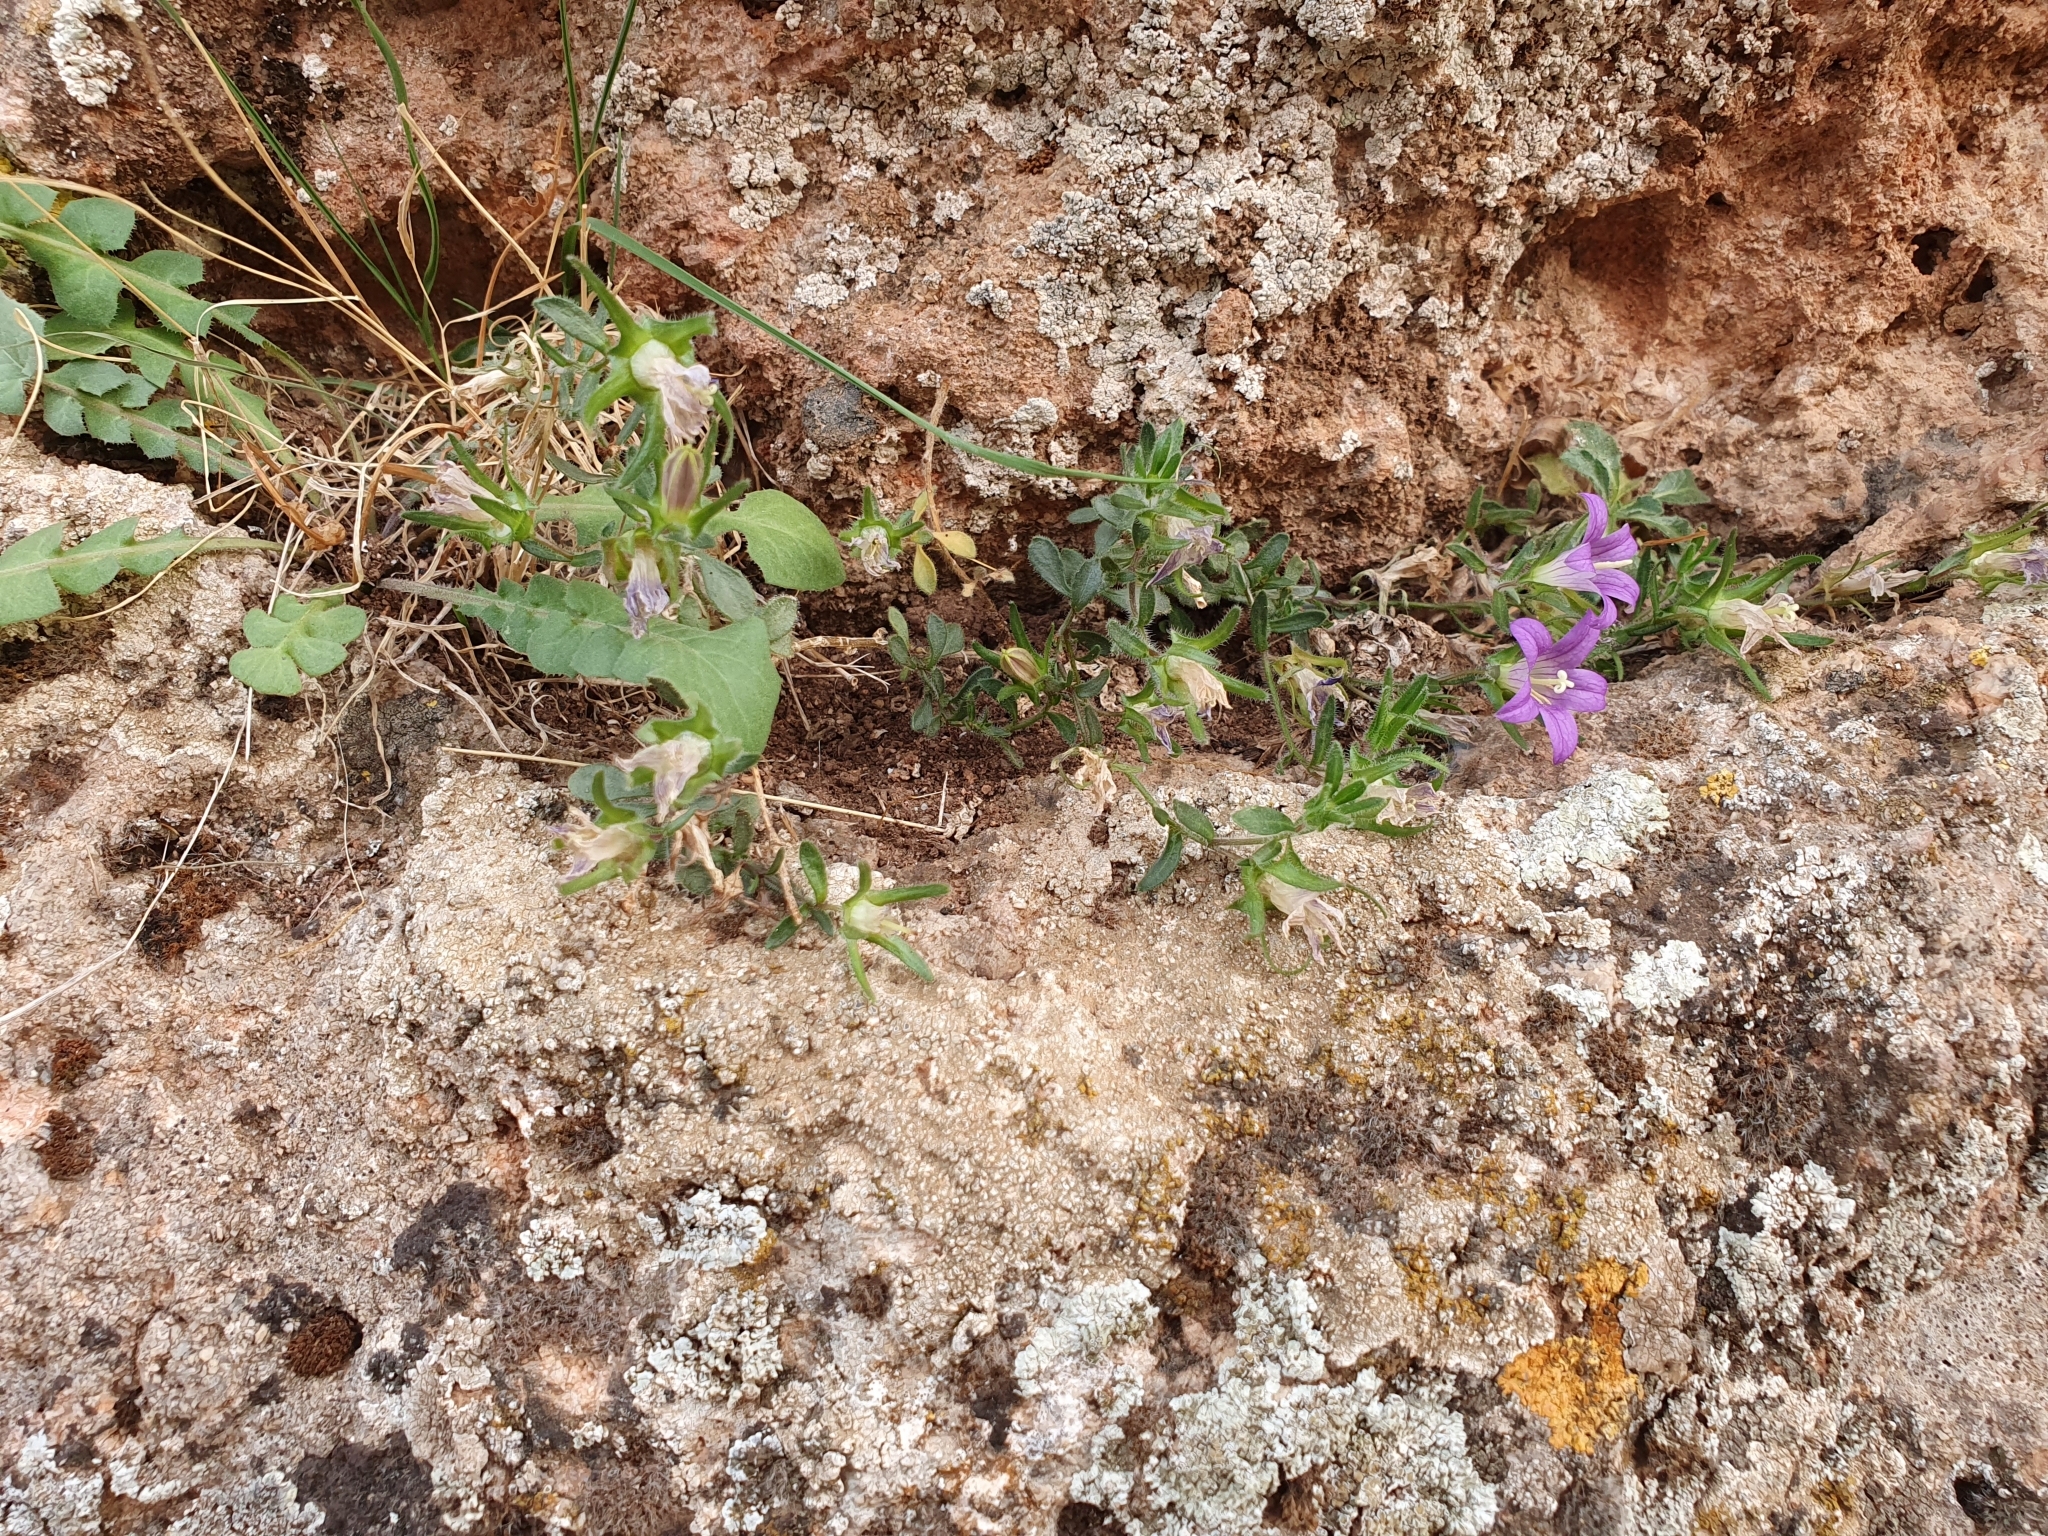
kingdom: Plantae
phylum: Tracheophyta
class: Magnoliopsida
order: Asterales
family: Campanulaceae
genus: Campanula
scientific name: Campanula numidica
